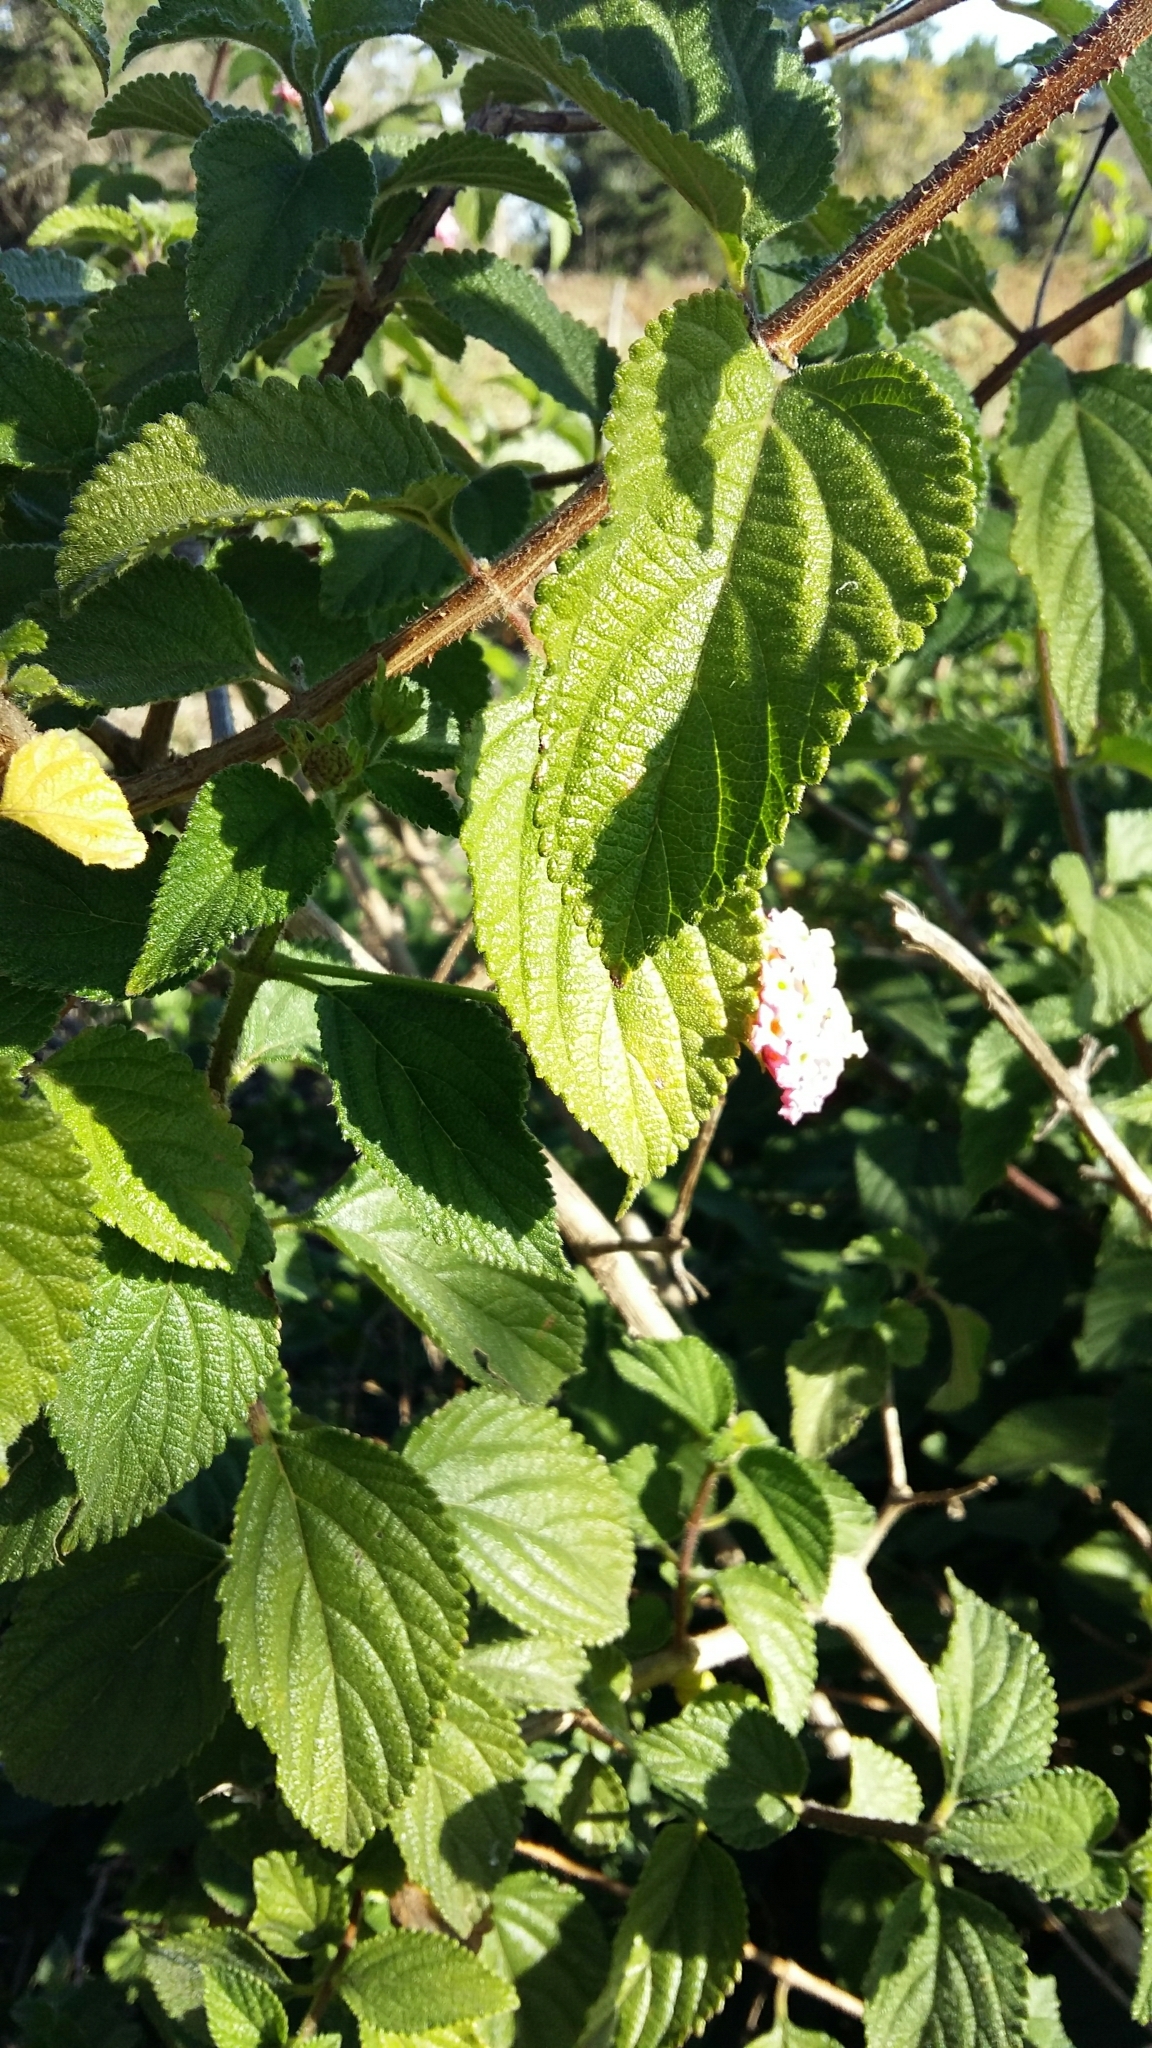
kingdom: Plantae
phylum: Tracheophyta
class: Magnoliopsida
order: Lamiales
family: Verbenaceae
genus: Lantana
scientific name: Lantana camara
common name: Lantana
